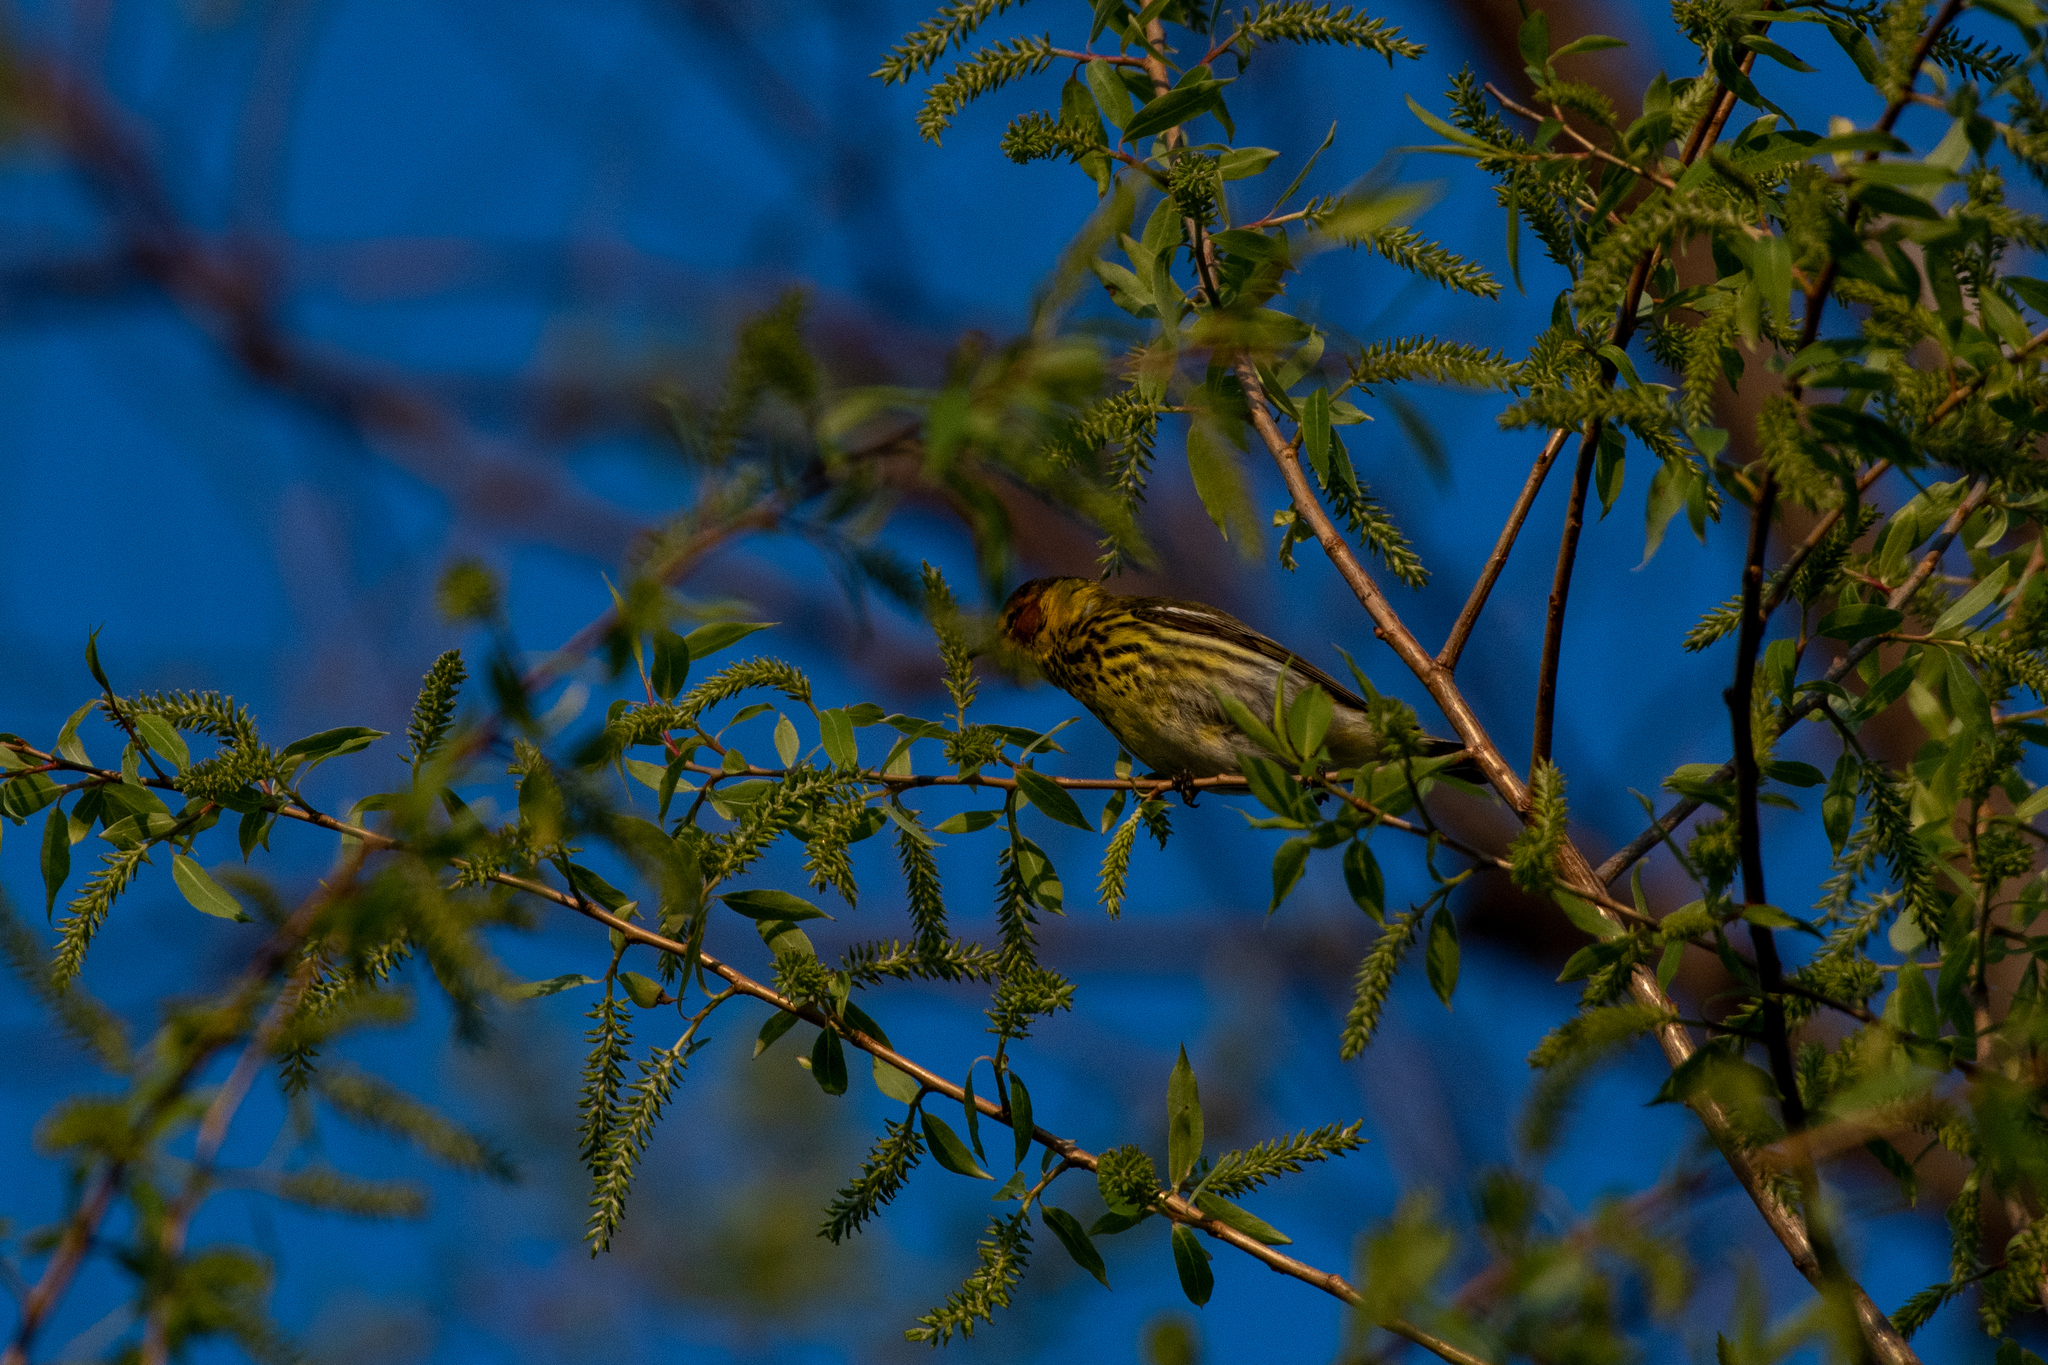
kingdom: Animalia
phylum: Chordata
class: Aves
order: Passeriformes
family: Parulidae
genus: Setophaga
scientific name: Setophaga tigrina
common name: Cape may warbler
